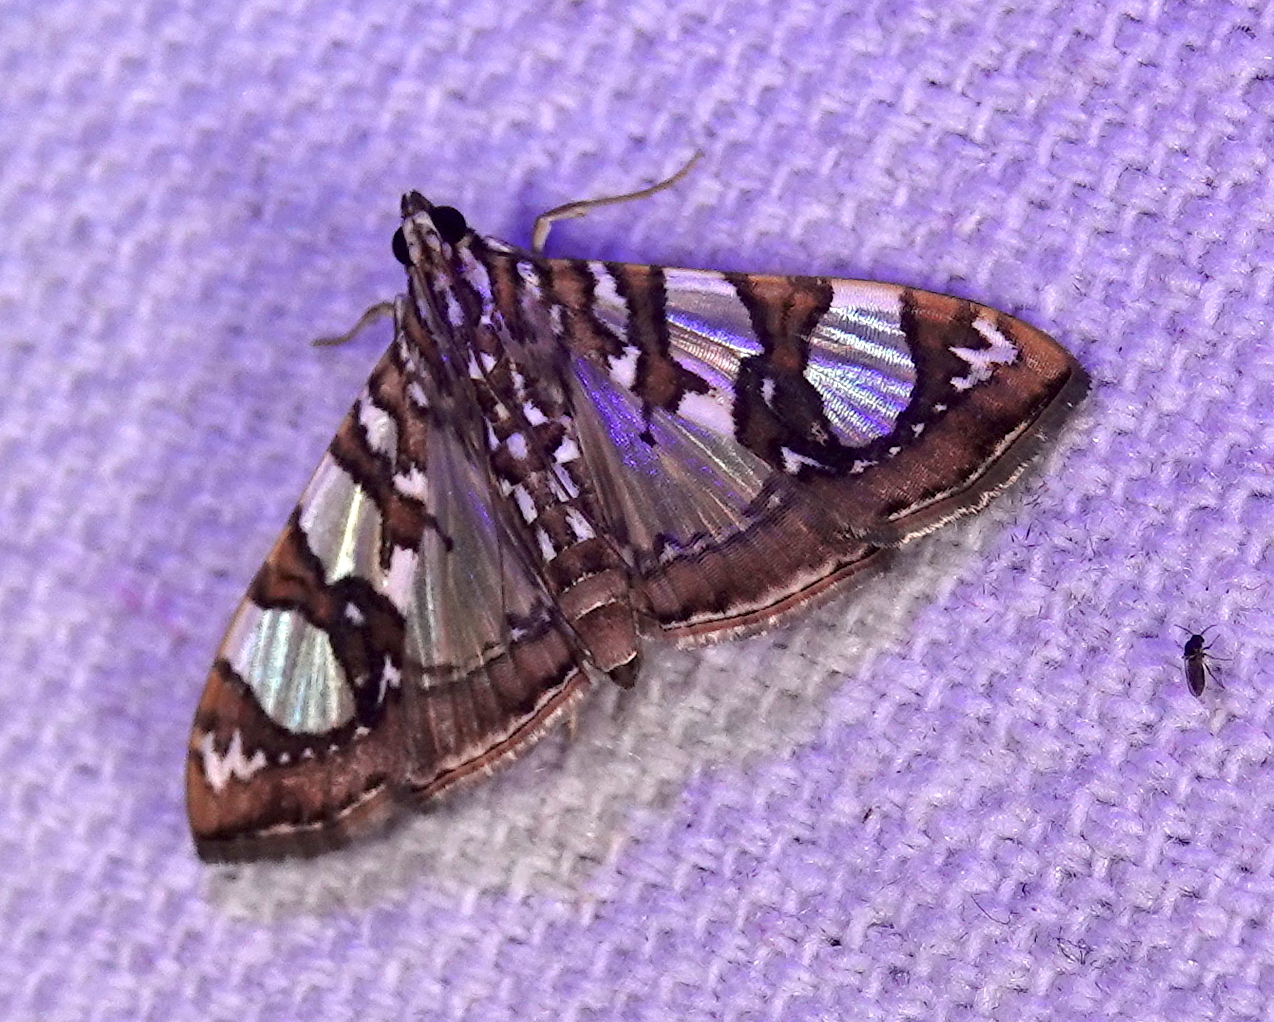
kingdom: Animalia
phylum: Arthropoda
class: Insecta
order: Lepidoptera
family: Crambidae
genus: Glyphodes
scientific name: Glyphodes sibillalis
